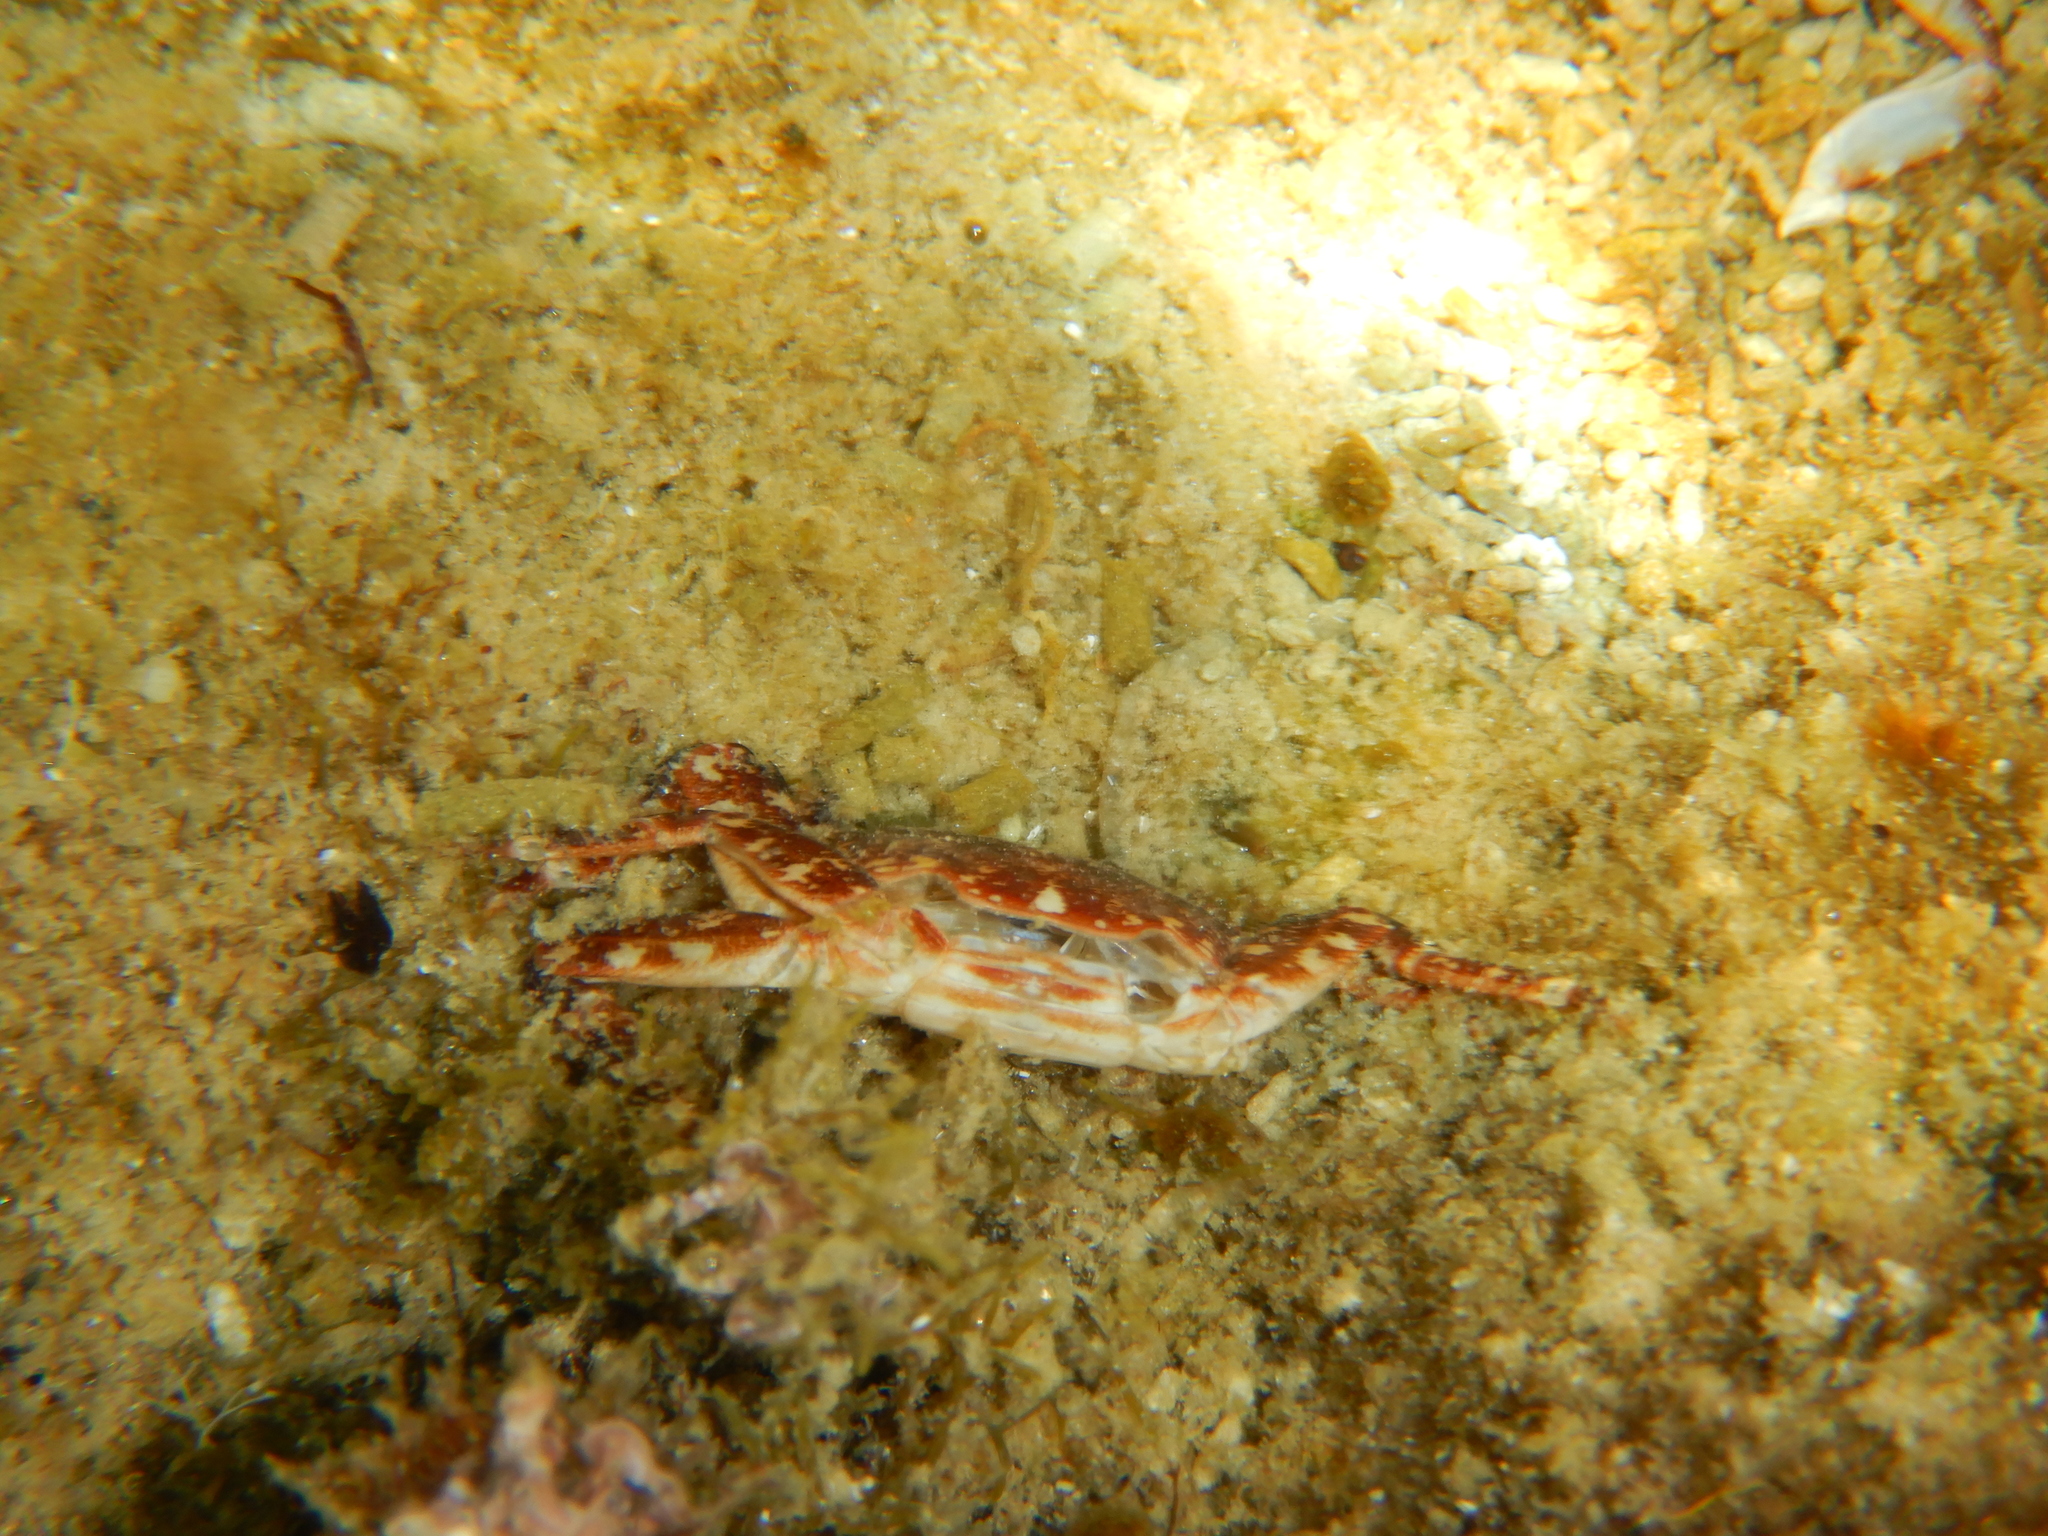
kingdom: Animalia
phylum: Arthropoda
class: Malacostraca
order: Decapoda
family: Grapsidae
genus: Pachygrapsus
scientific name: Pachygrapsus marmoratus
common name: Marbled rock crab
